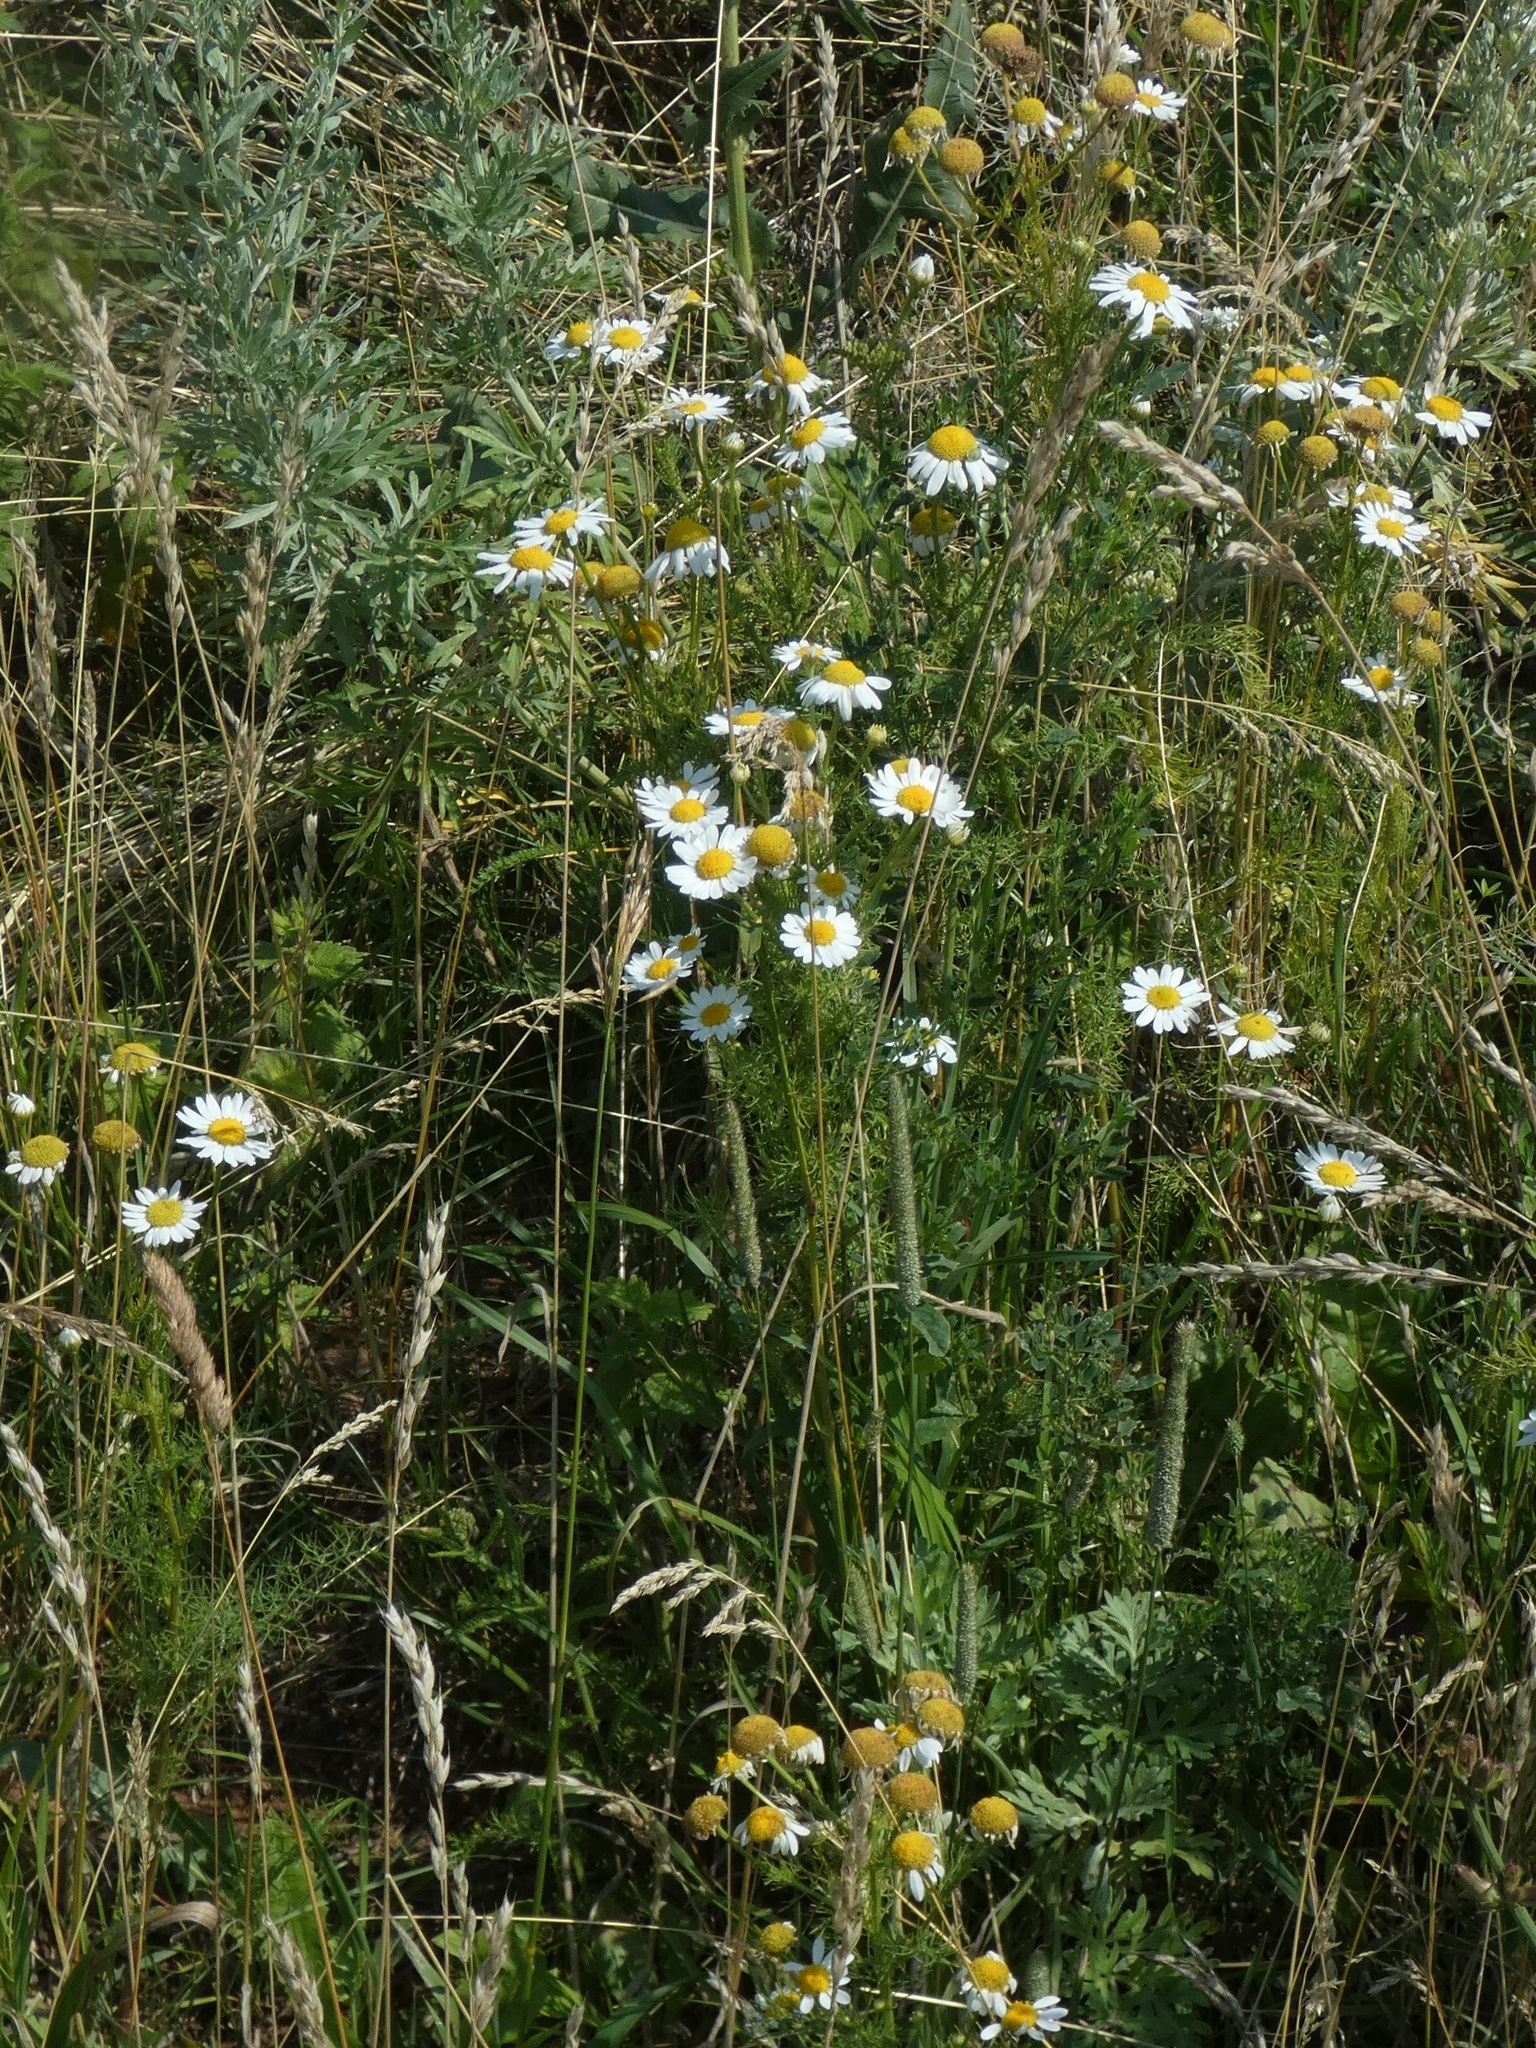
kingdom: Plantae
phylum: Tracheophyta
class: Magnoliopsida
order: Asterales
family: Asteraceae
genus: Tripleurospermum
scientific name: Tripleurospermum inodorum
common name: Scentless mayweed
